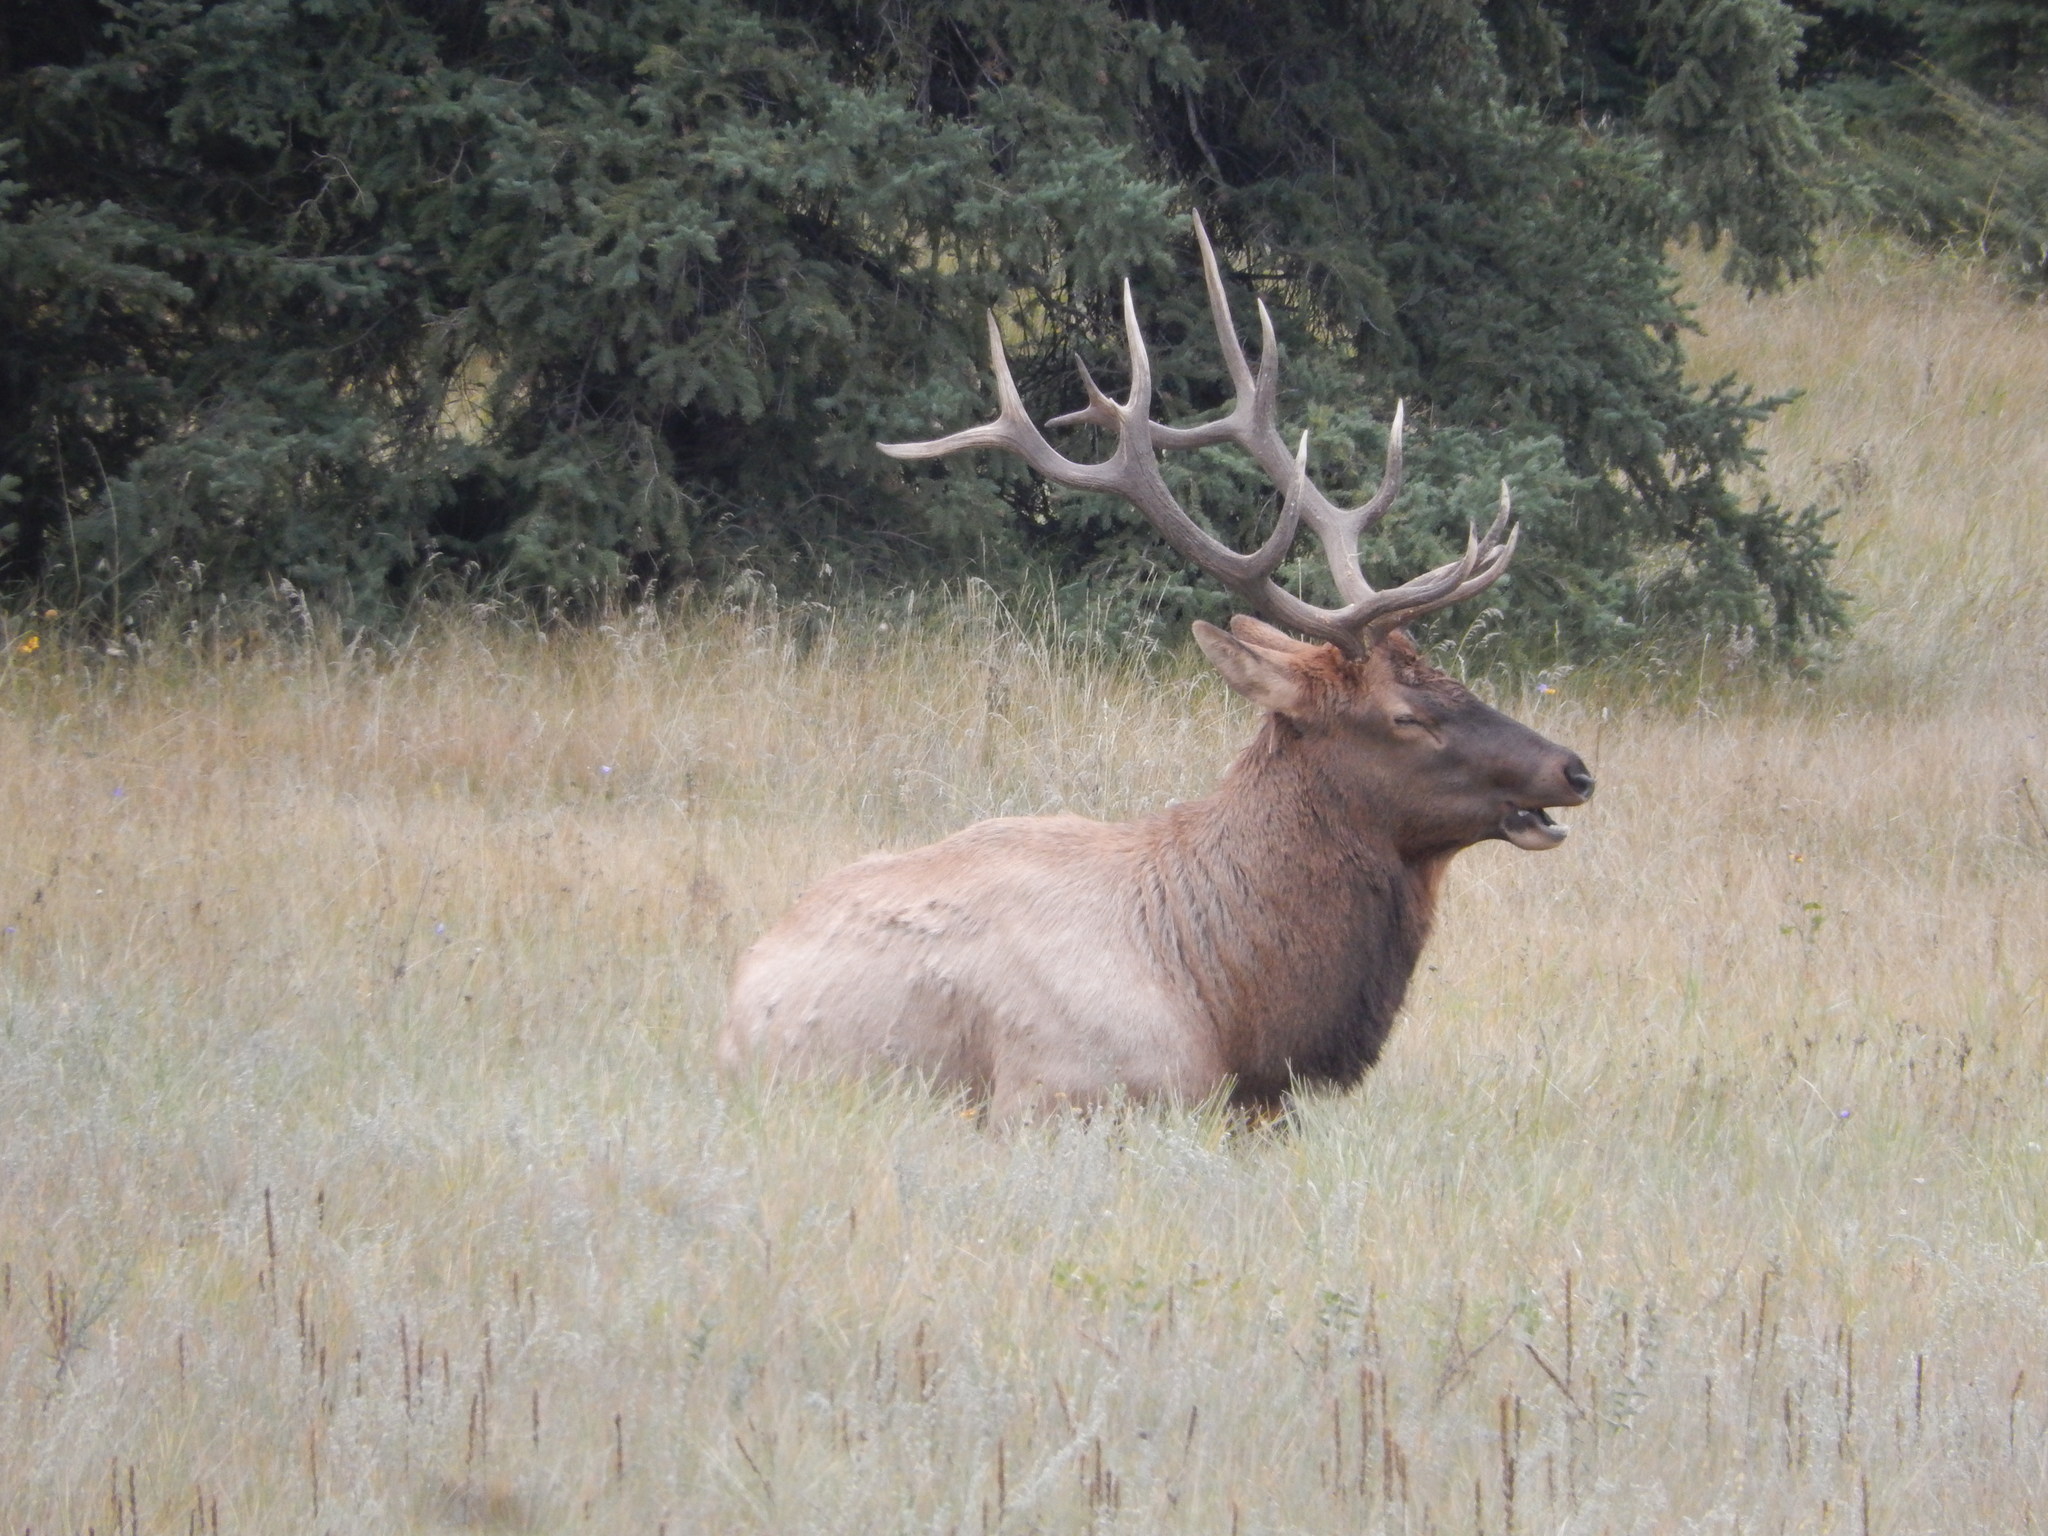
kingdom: Animalia
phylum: Chordata
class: Mammalia
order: Artiodactyla
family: Cervidae
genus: Cervus
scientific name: Cervus elaphus
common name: Red deer
